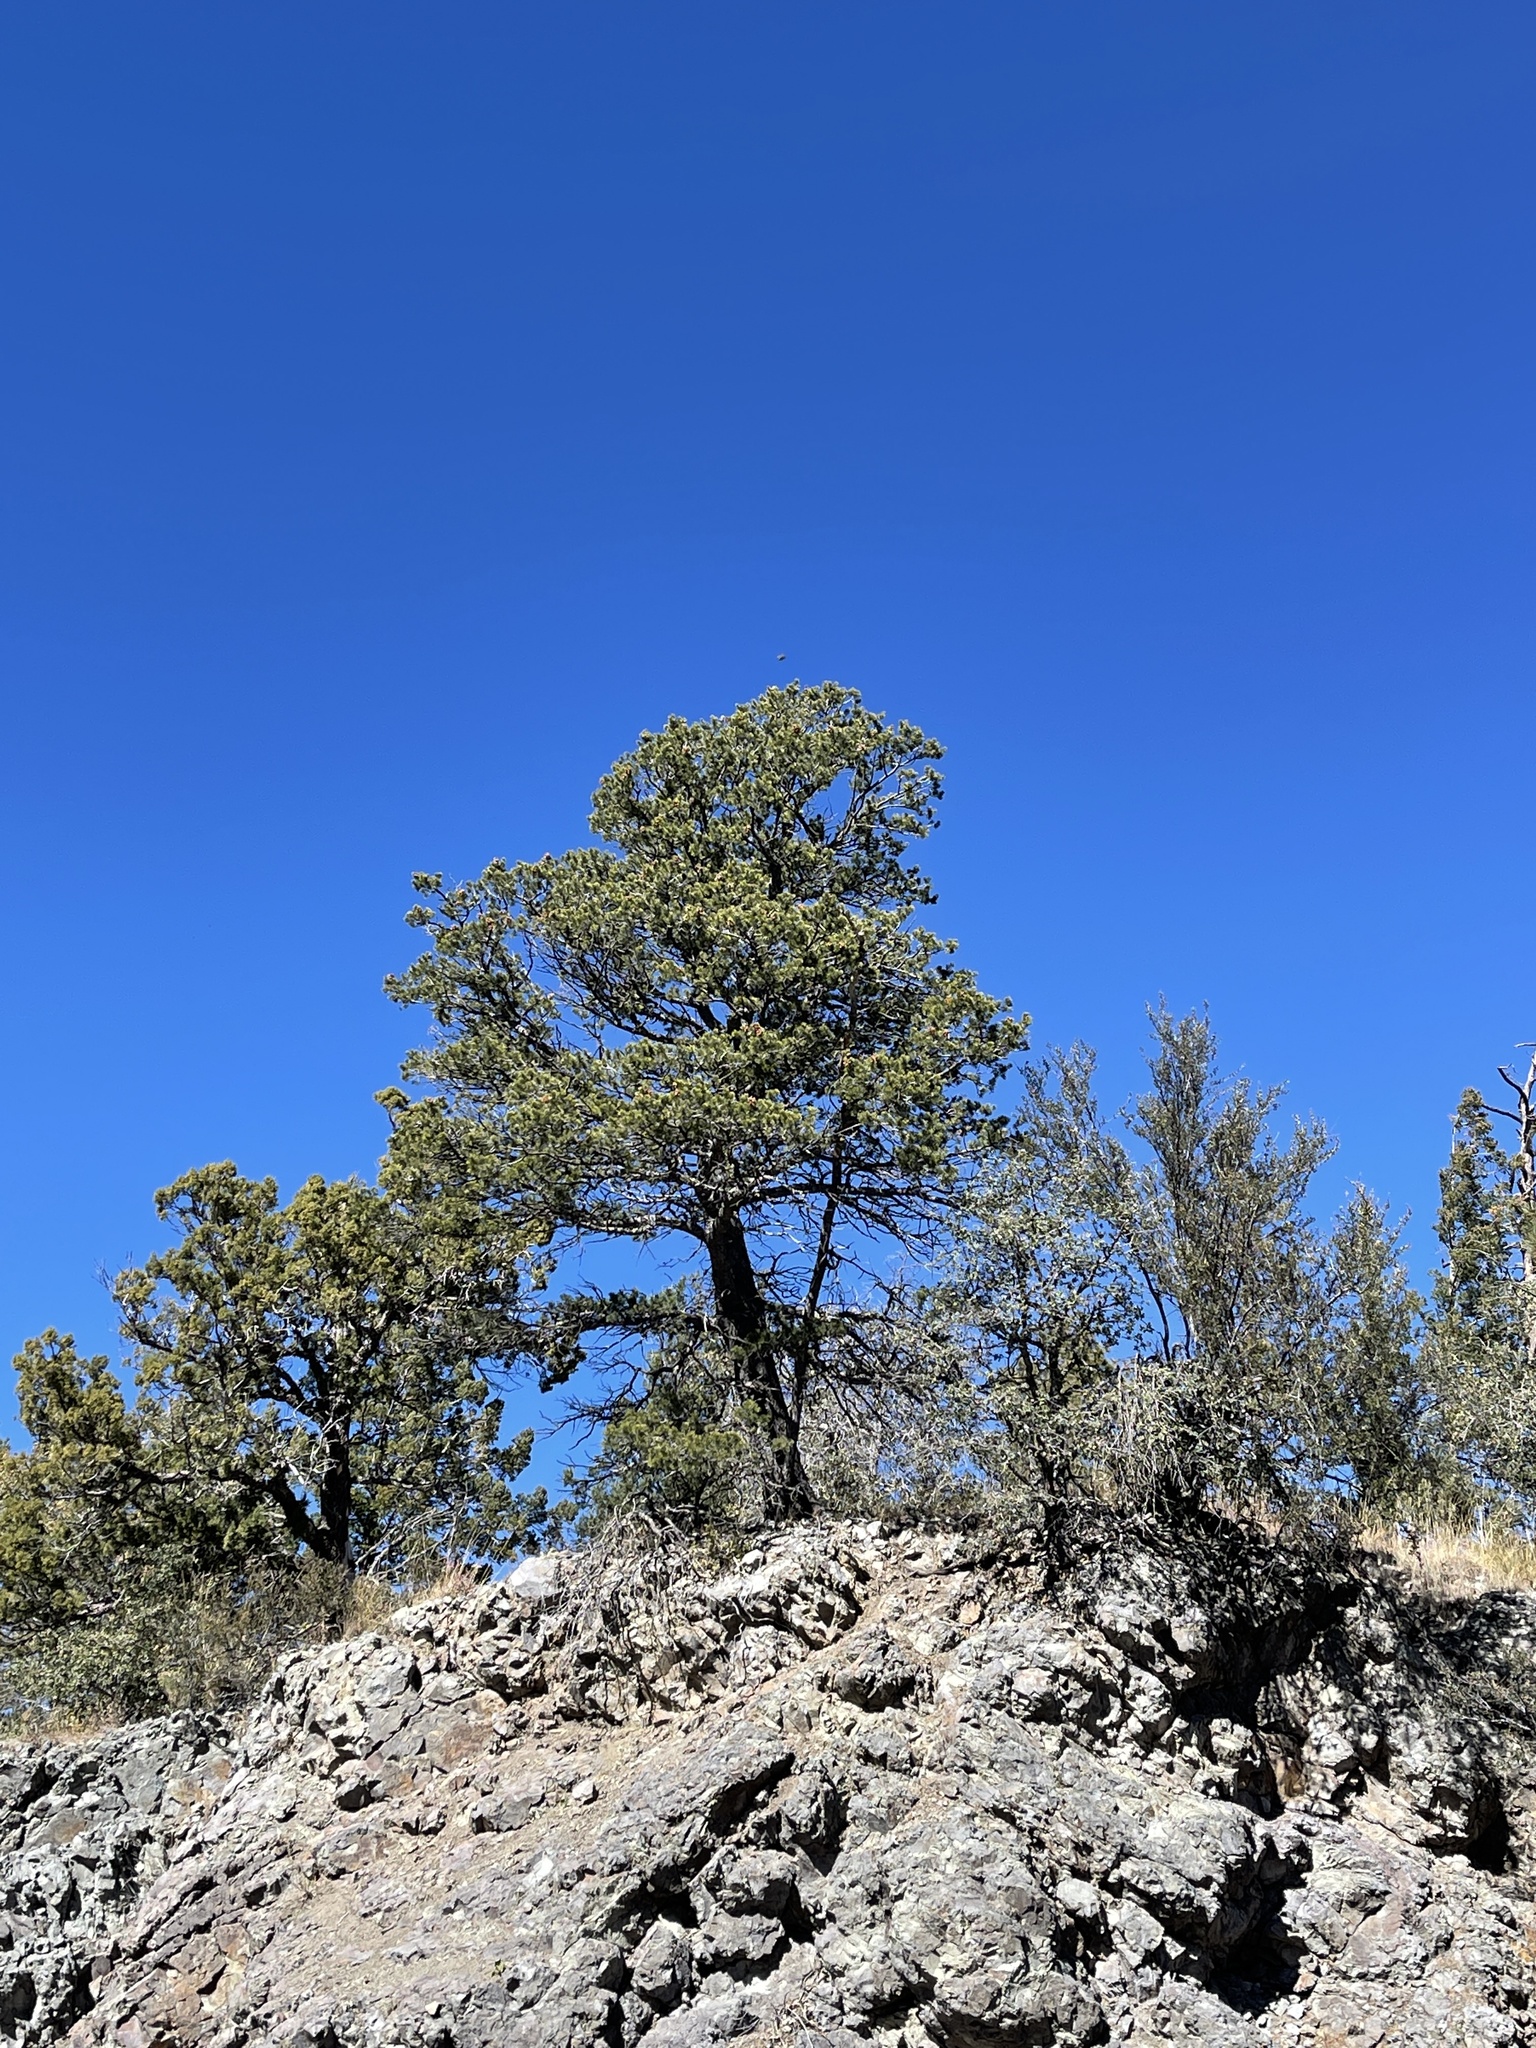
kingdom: Plantae
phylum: Tracheophyta
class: Pinopsida
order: Pinales
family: Pinaceae
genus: Pinus
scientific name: Pinus edulis
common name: Colorado pinyon
